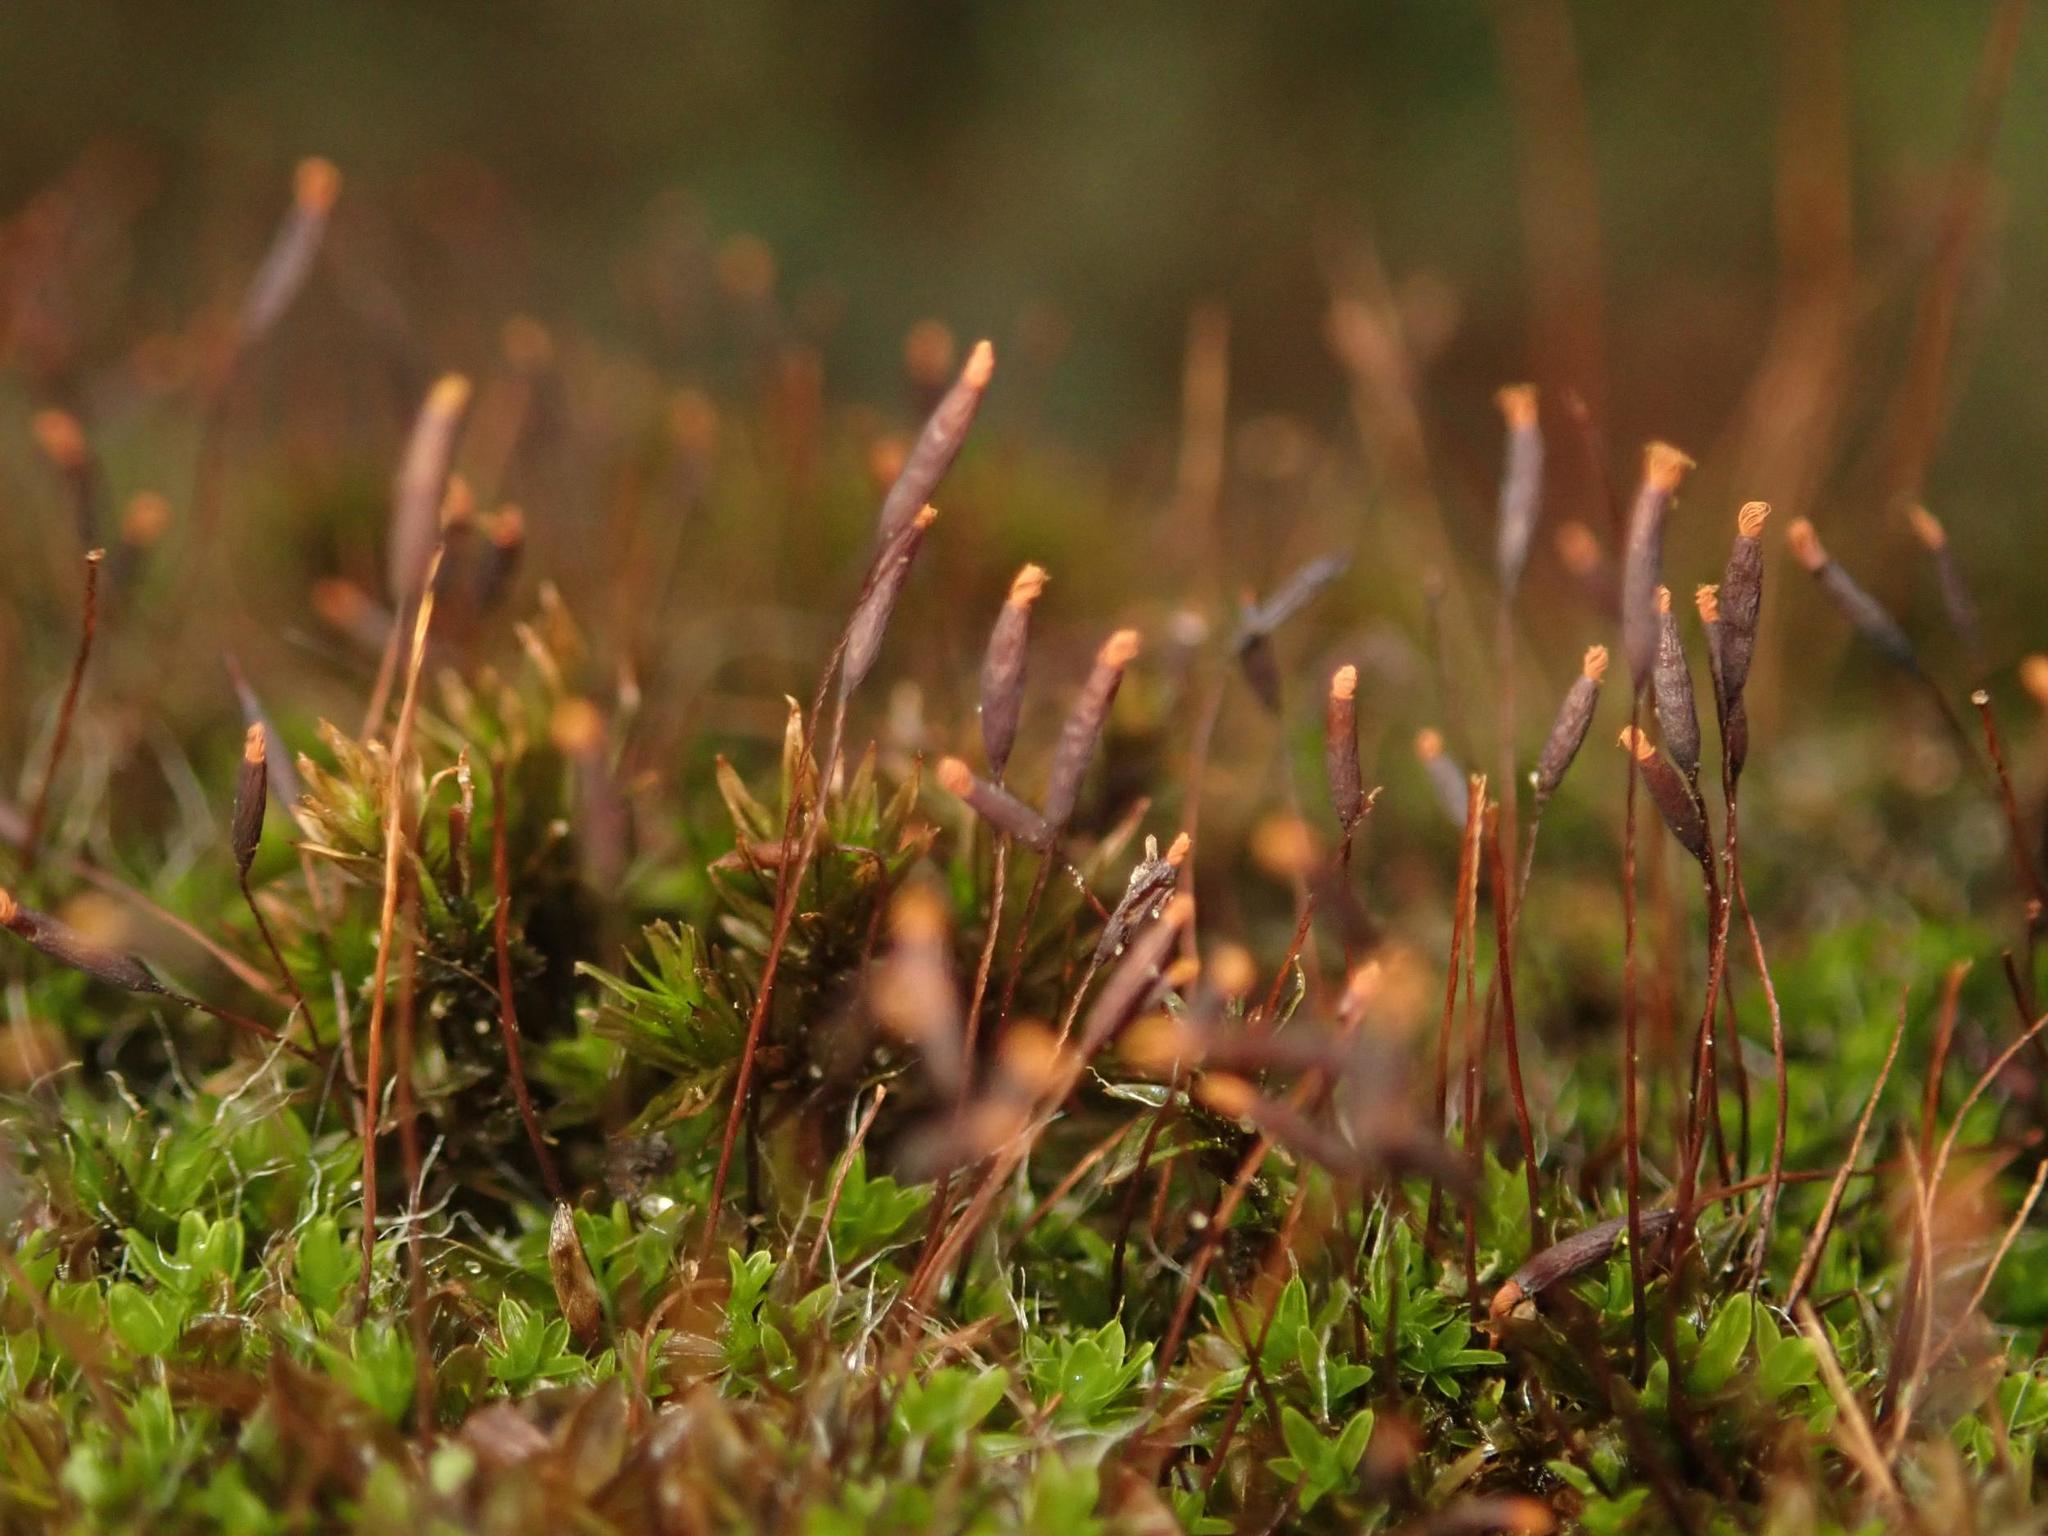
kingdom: Plantae
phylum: Bryophyta
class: Bryopsida
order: Pottiales
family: Pottiaceae
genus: Tortula
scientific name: Tortula muralis
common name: Wall screw-moss
